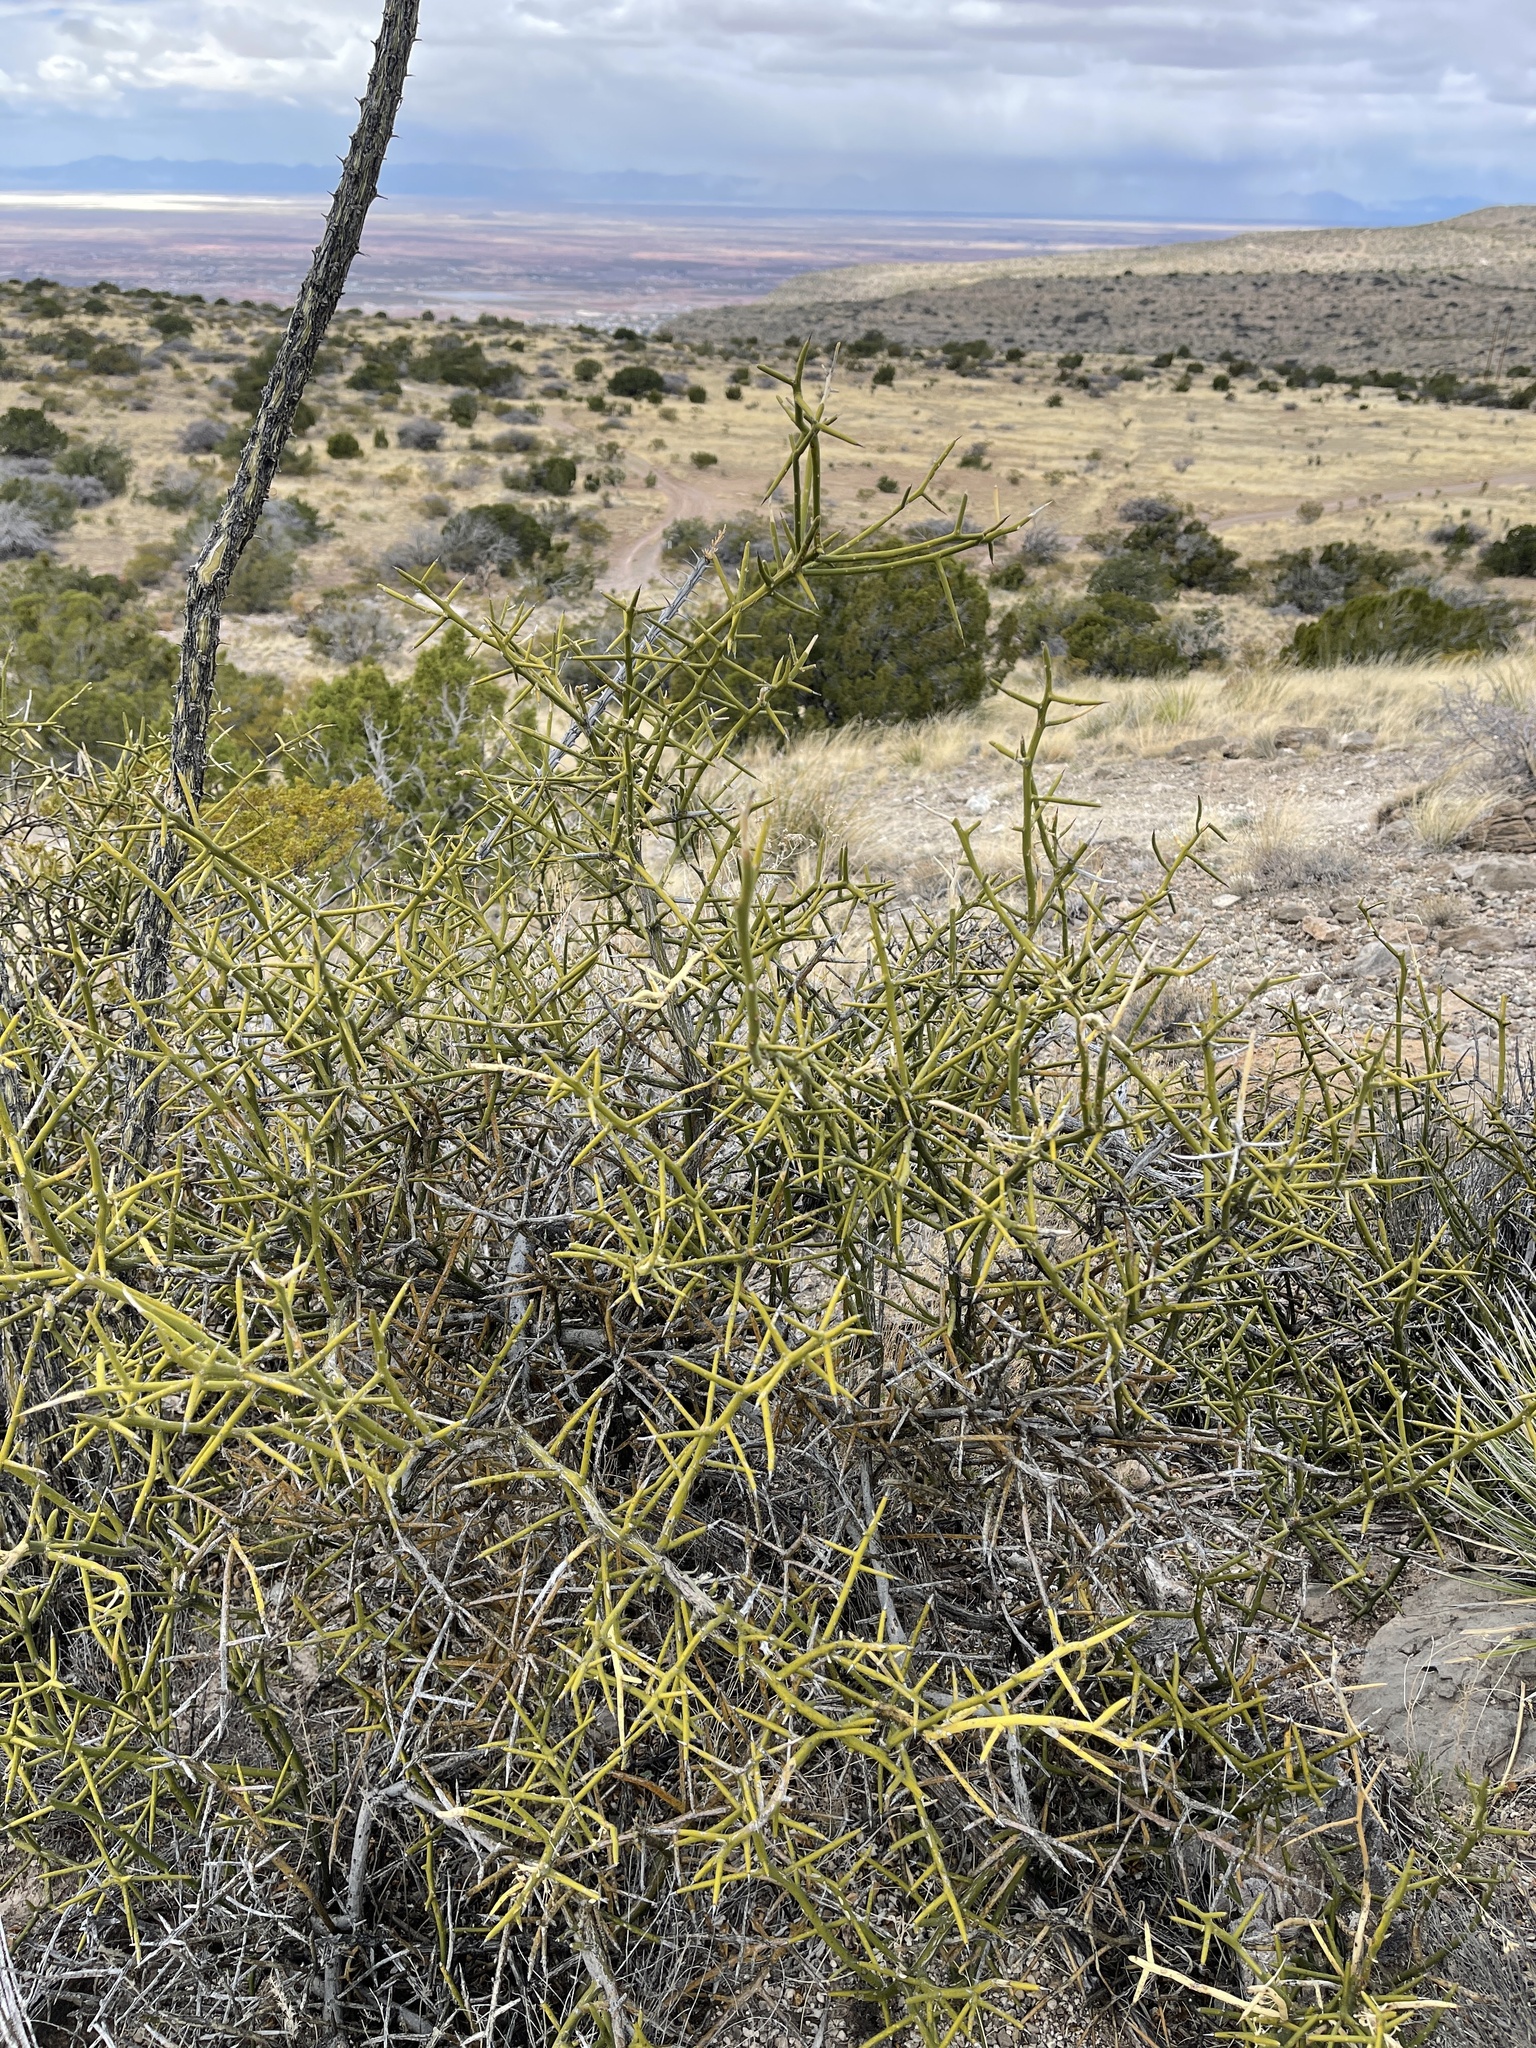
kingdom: Plantae
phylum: Tracheophyta
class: Magnoliopsida
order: Brassicales
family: Koeberliniaceae
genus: Koeberlinia
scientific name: Koeberlinia spinosa
